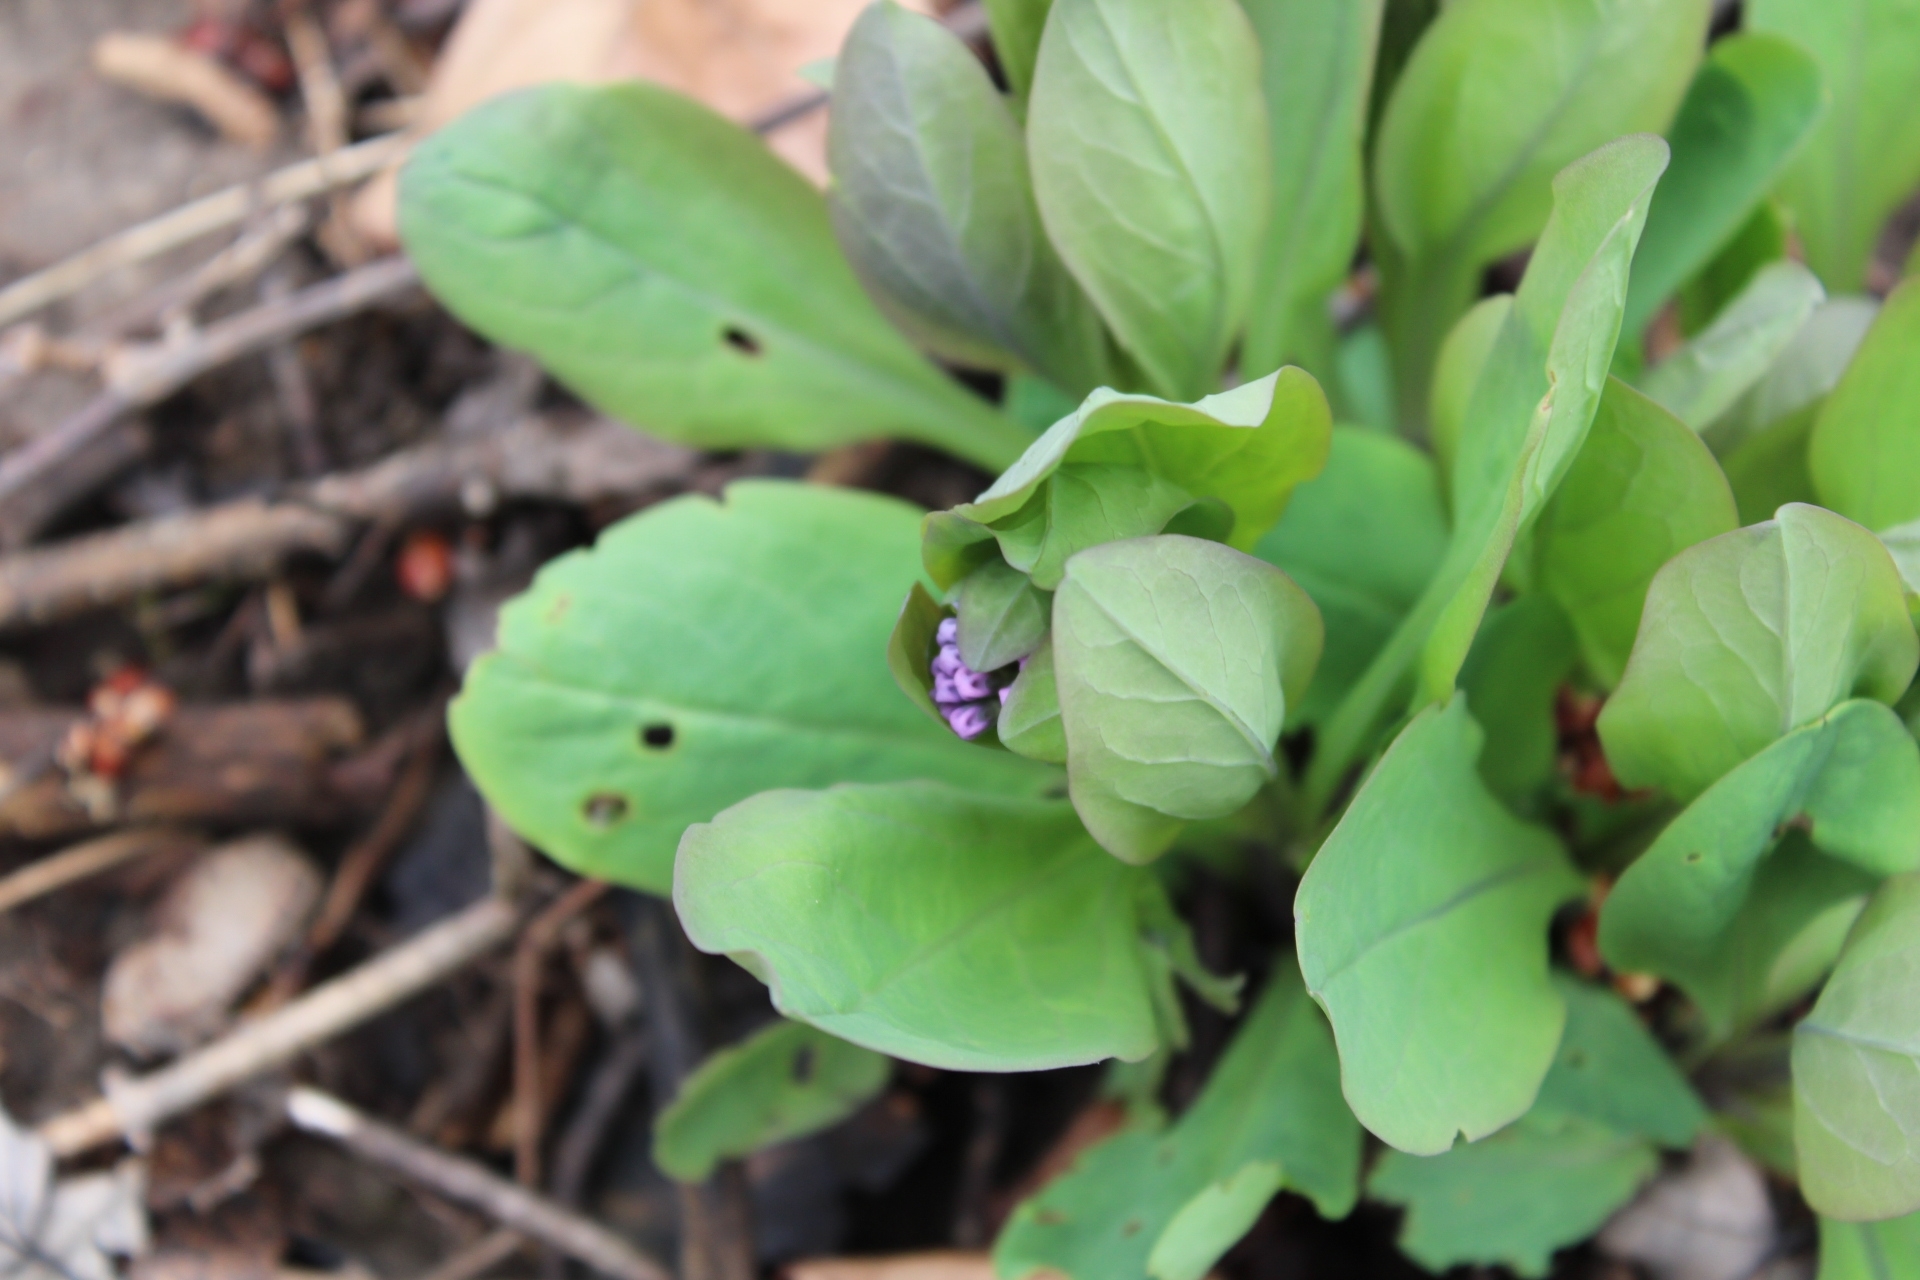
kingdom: Plantae
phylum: Tracheophyta
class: Magnoliopsida
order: Boraginales
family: Boraginaceae
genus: Mertensia
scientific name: Mertensia virginica
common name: Virginia bluebells
